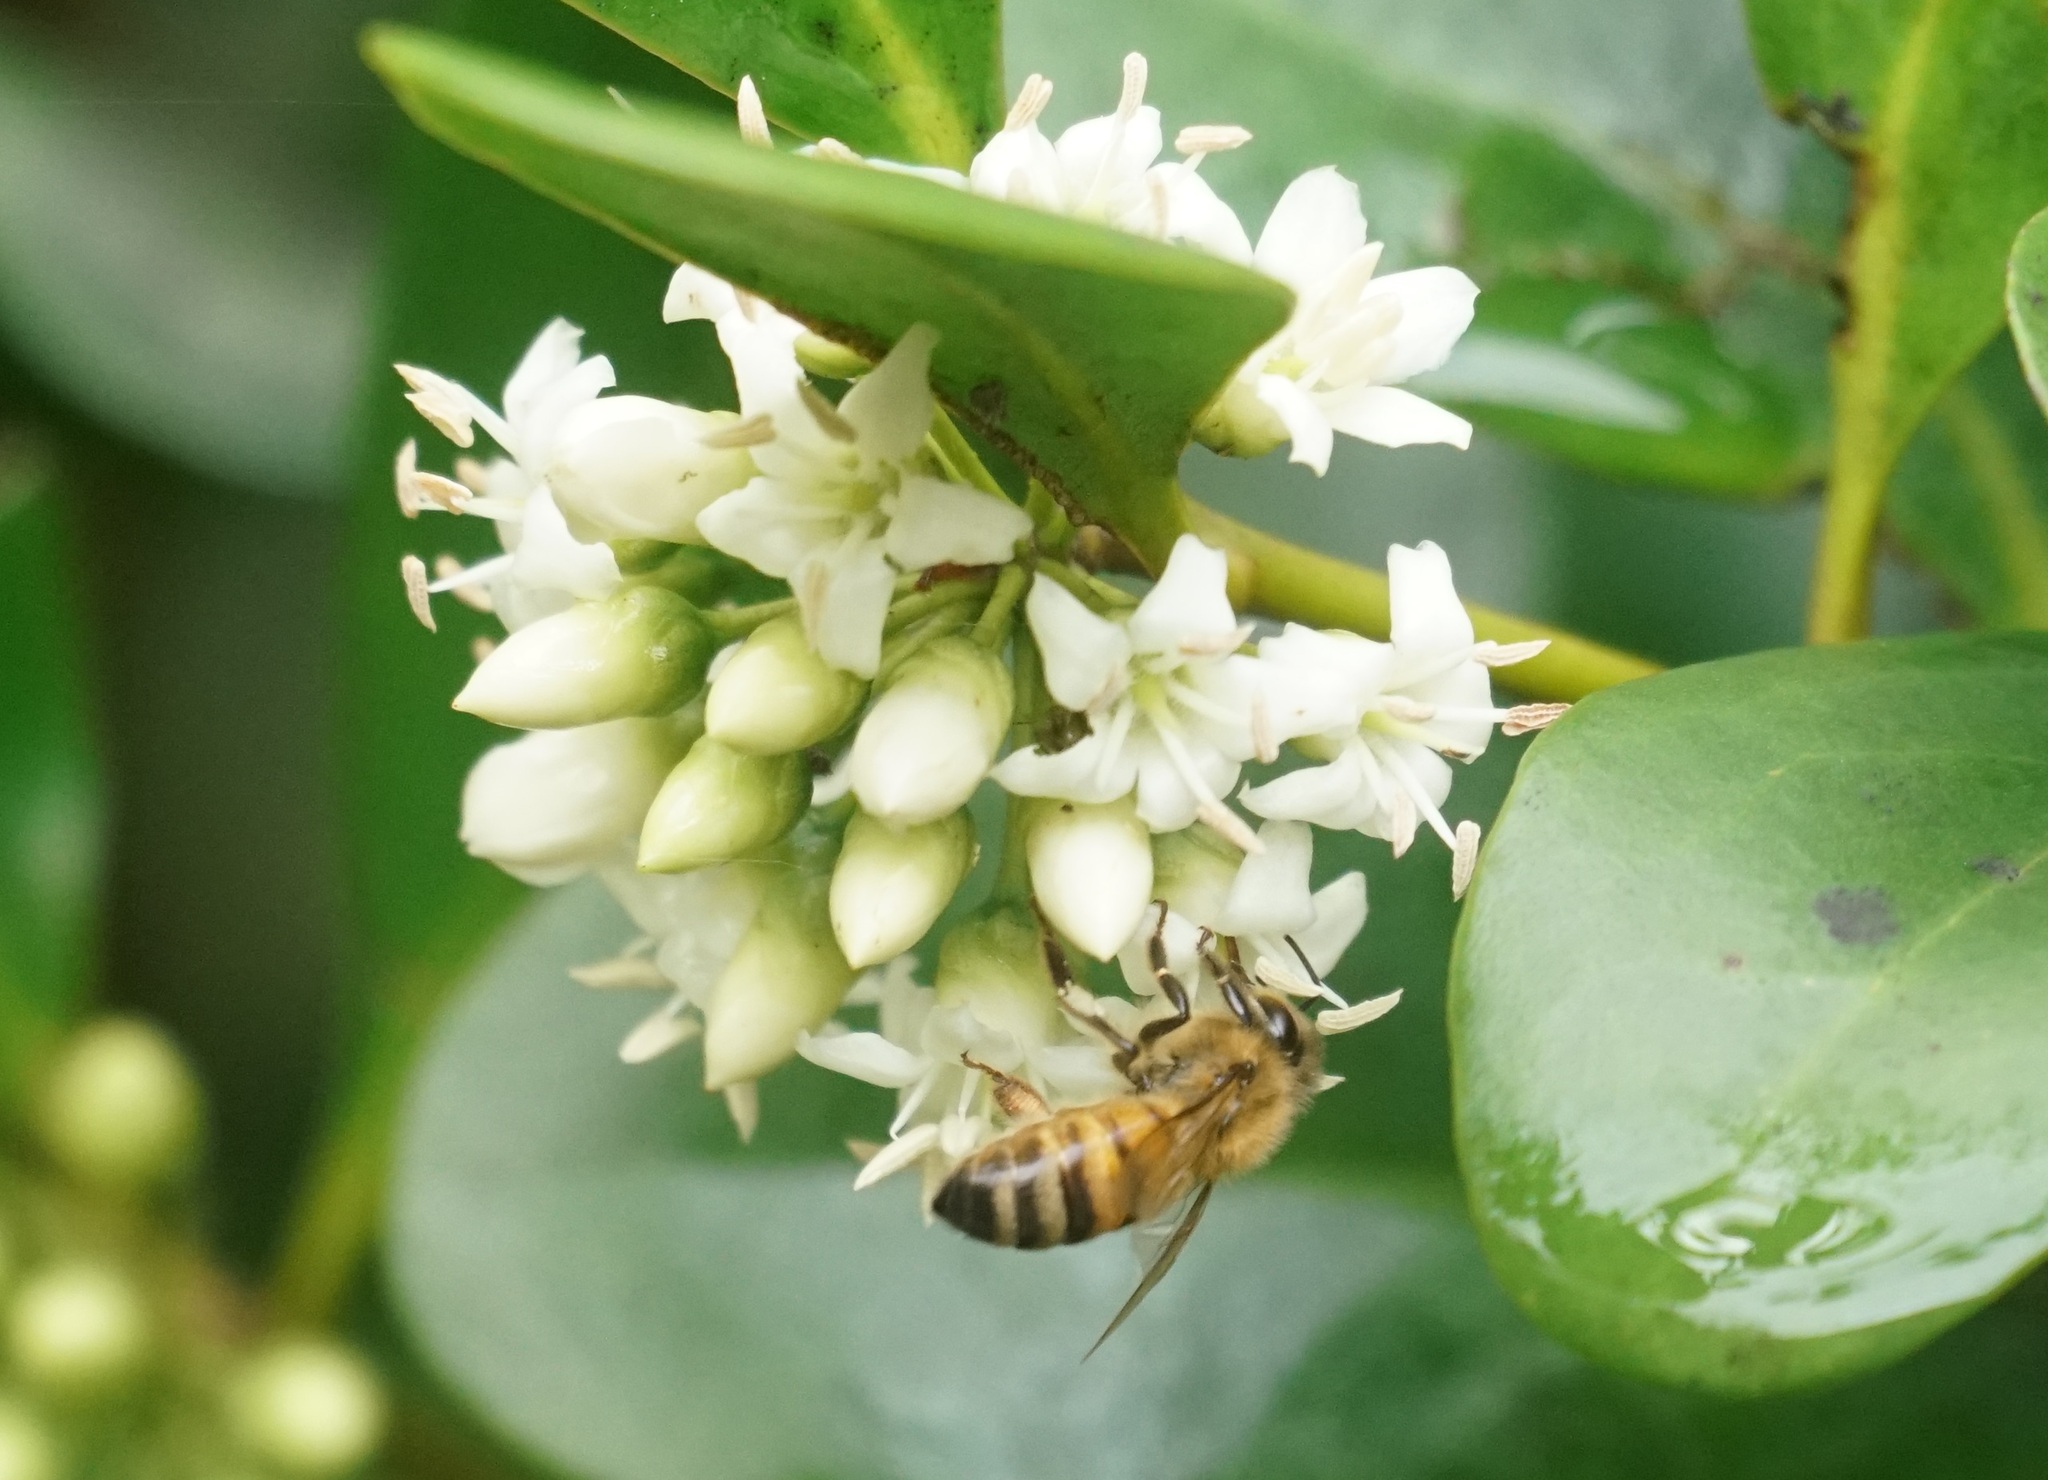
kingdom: Animalia
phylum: Arthropoda
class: Insecta
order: Hymenoptera
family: Apidae
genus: Apis
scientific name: Apis mellifera
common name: Honey bee
